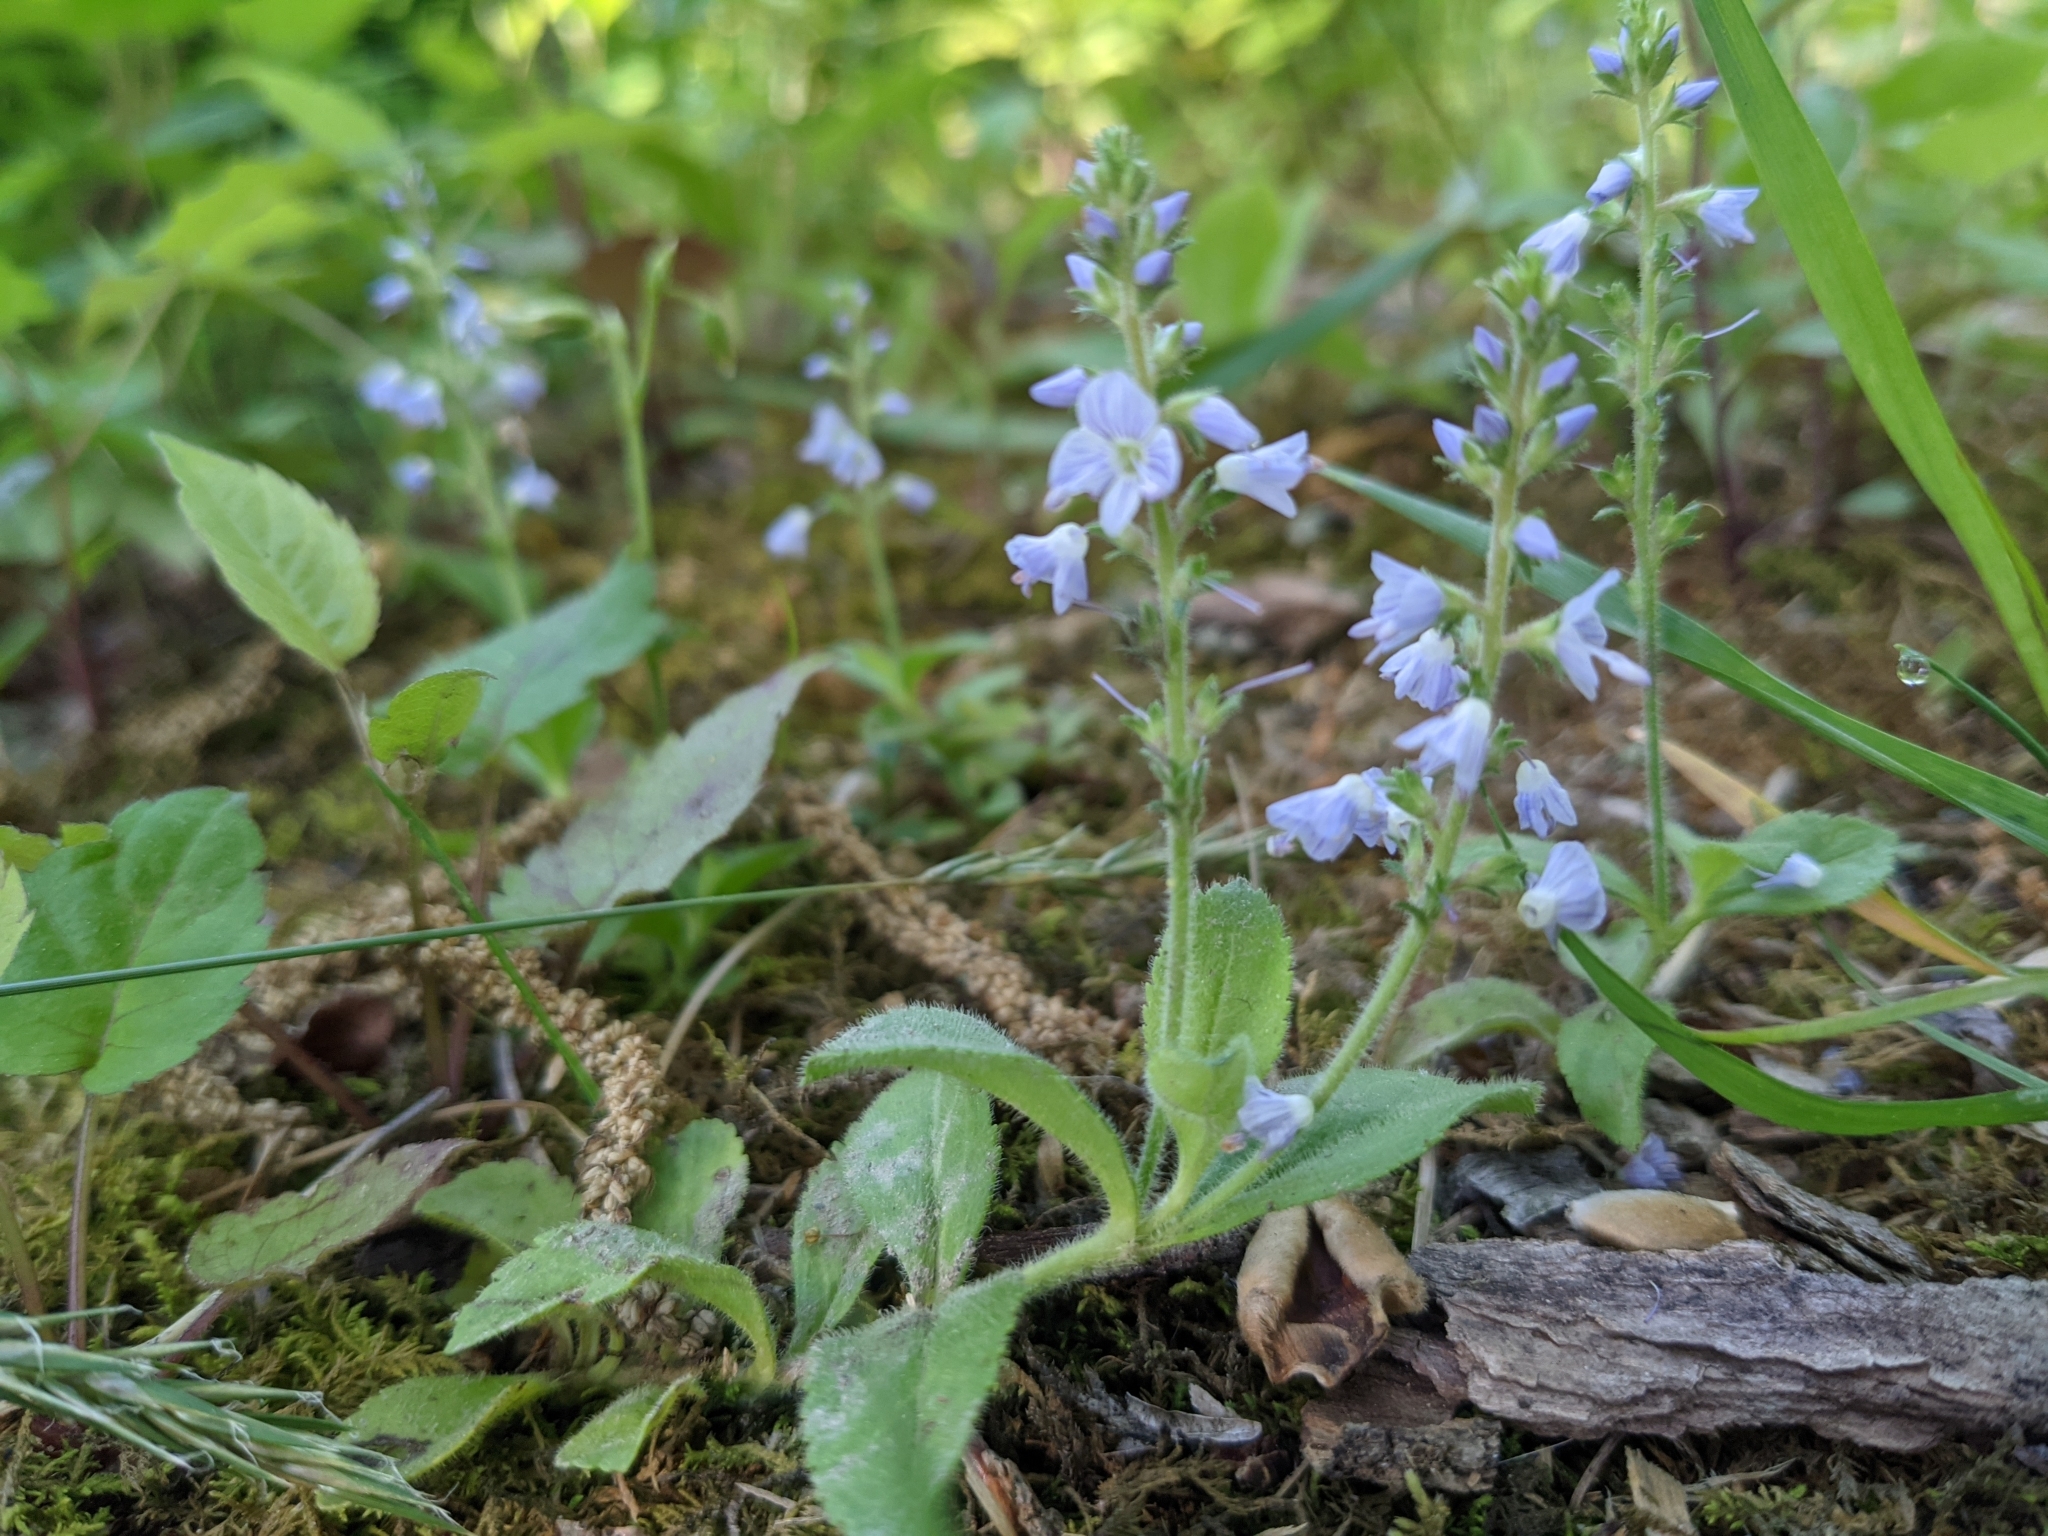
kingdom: Plantae
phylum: Tracheophyta
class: Magnoliopsida
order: Lamiales
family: Plantaginaceae
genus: Veronica
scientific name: Veronica officinalis
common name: Common speedwell
